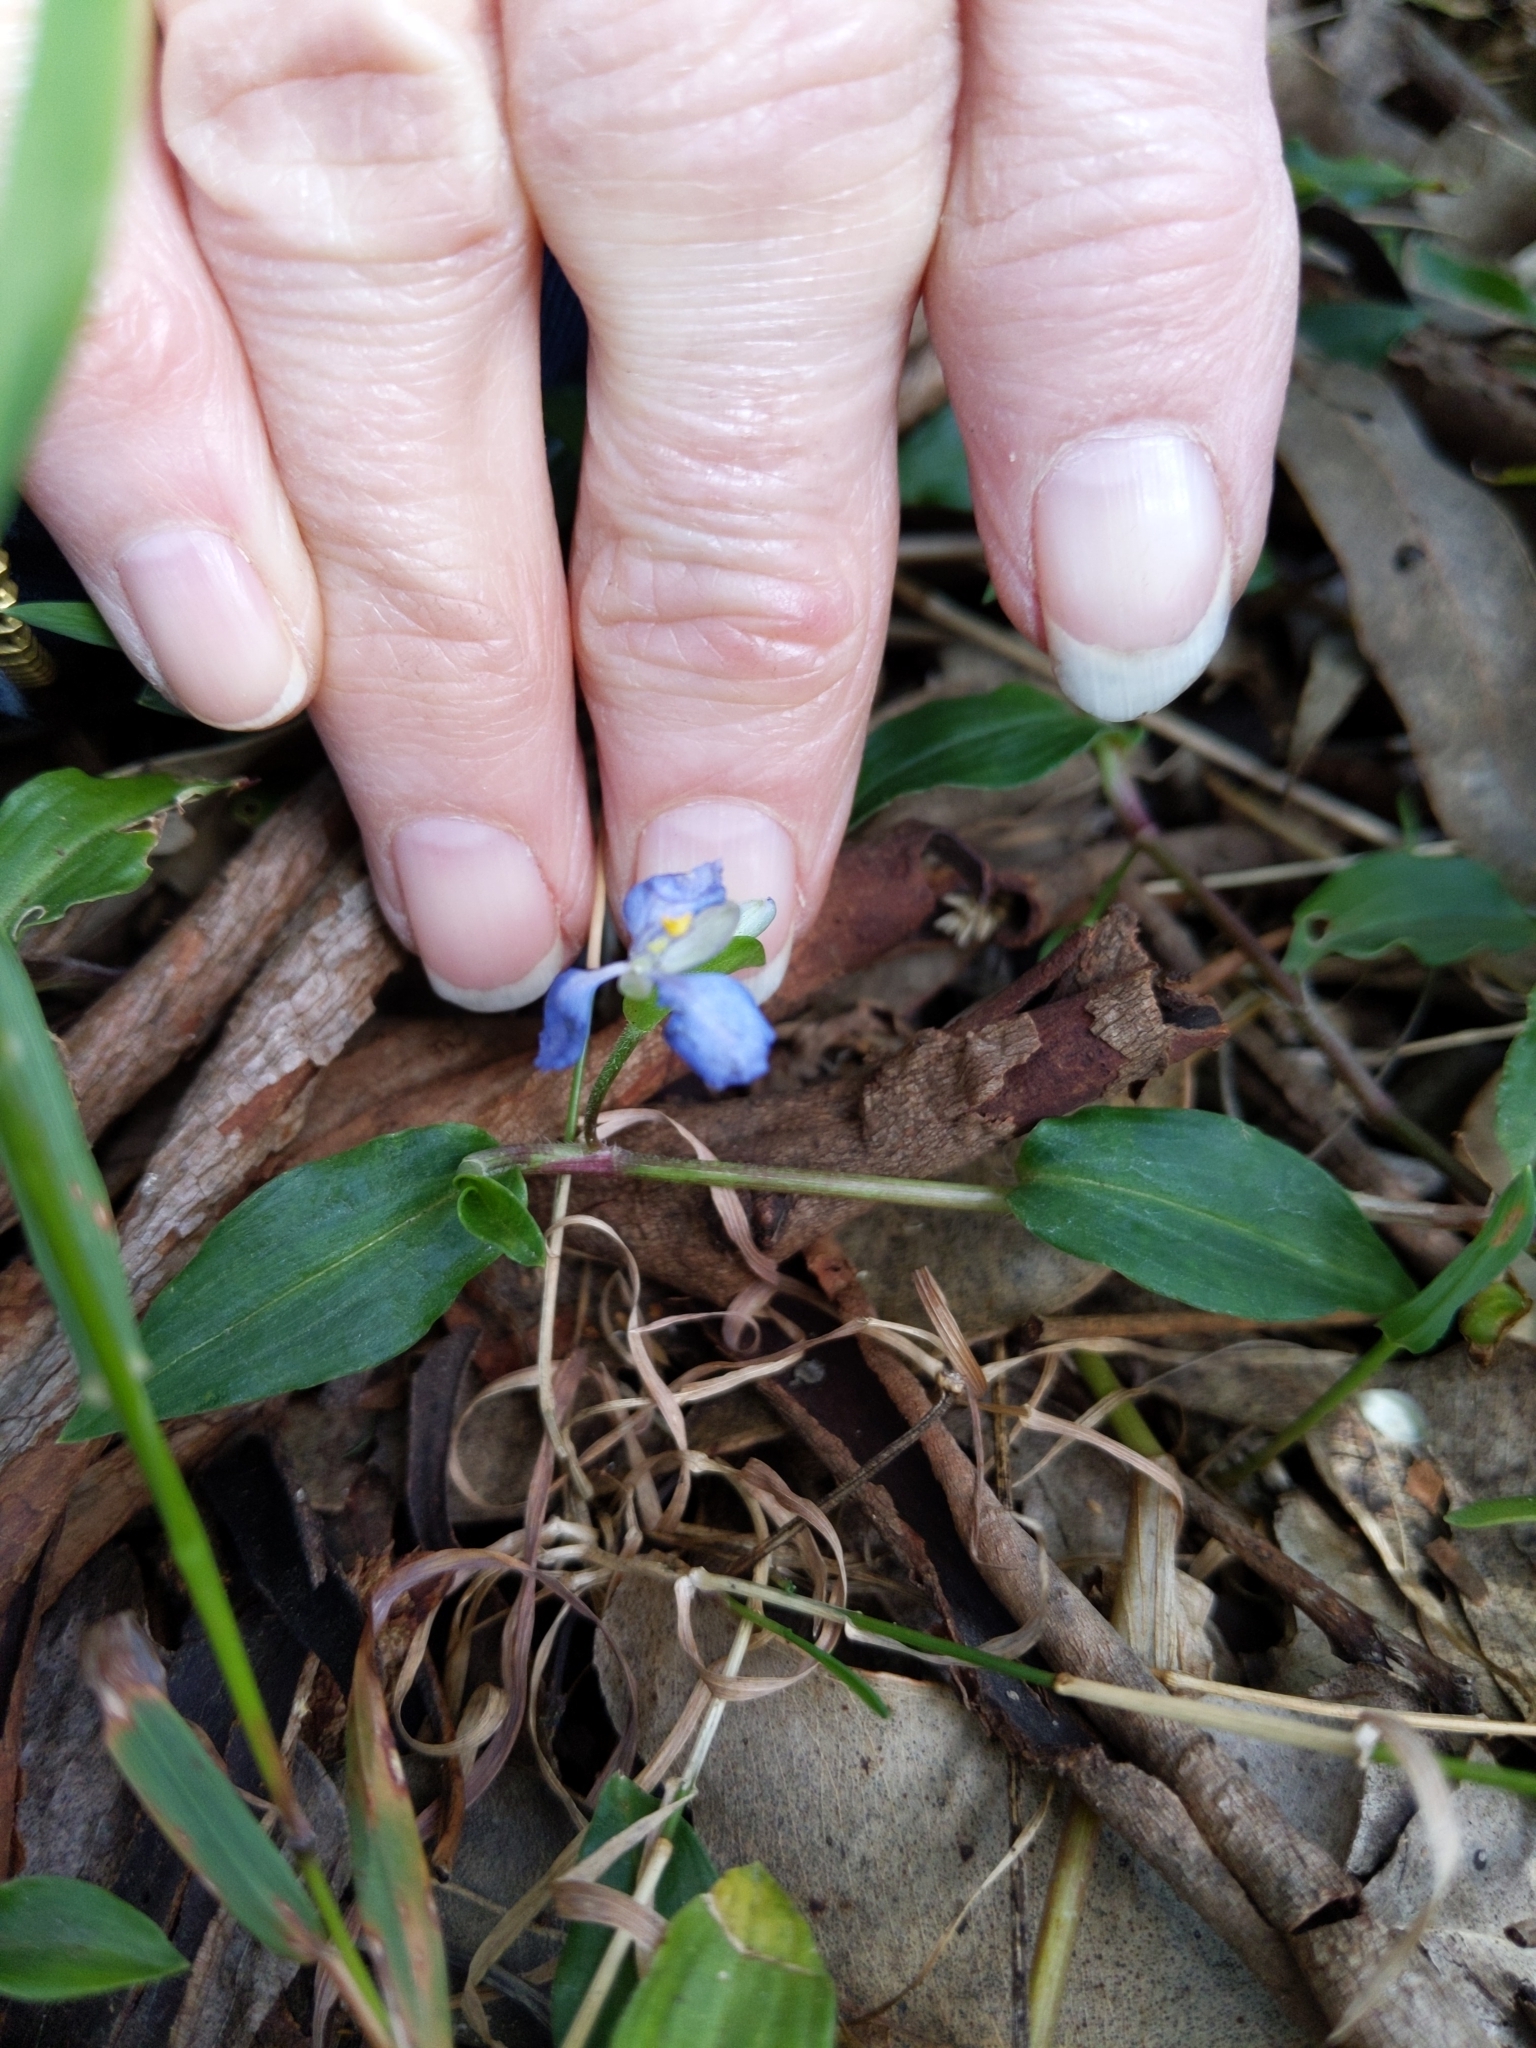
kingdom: Plantae
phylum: Tracheophyta
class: Liliopsida
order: Commelinales
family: Commelinaceae
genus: Commelina
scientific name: Commelina cyanea
